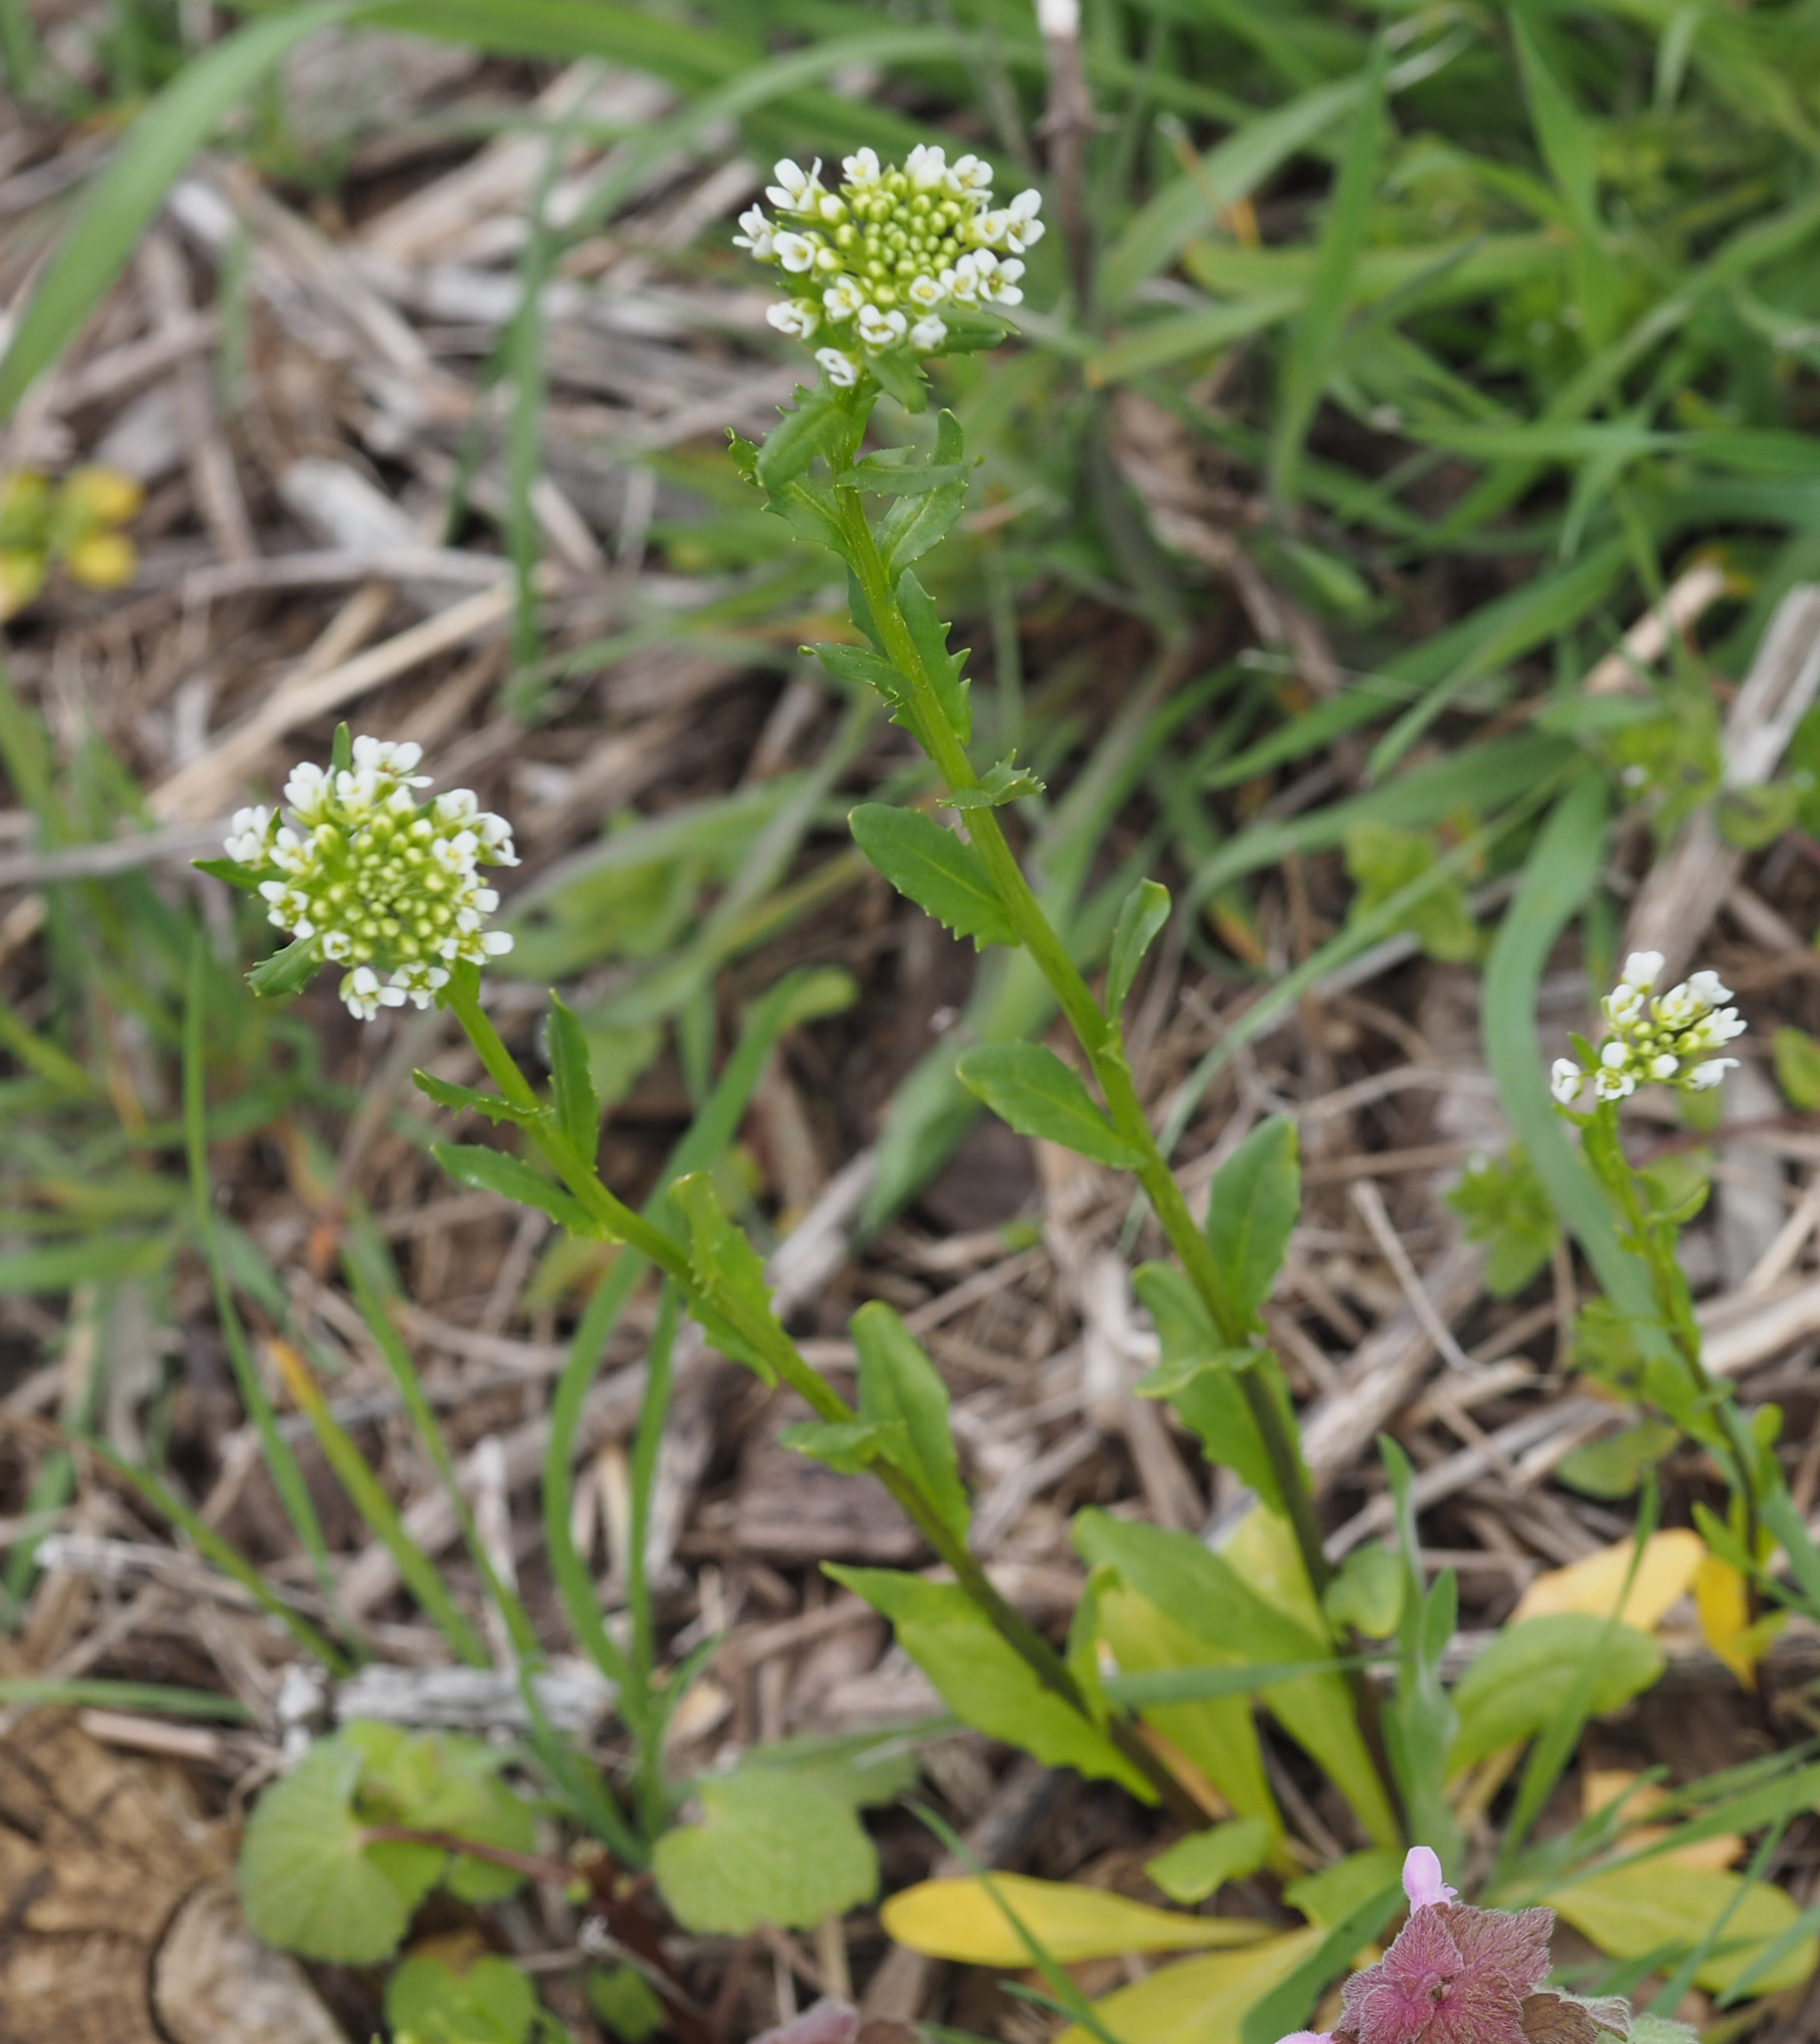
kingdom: Plantae
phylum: Tracheophyta
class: Magnoliopsida
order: Brassicales
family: Brassicaceae
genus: Thlaspi
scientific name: Thlaspi arvense
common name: Field pennycress
